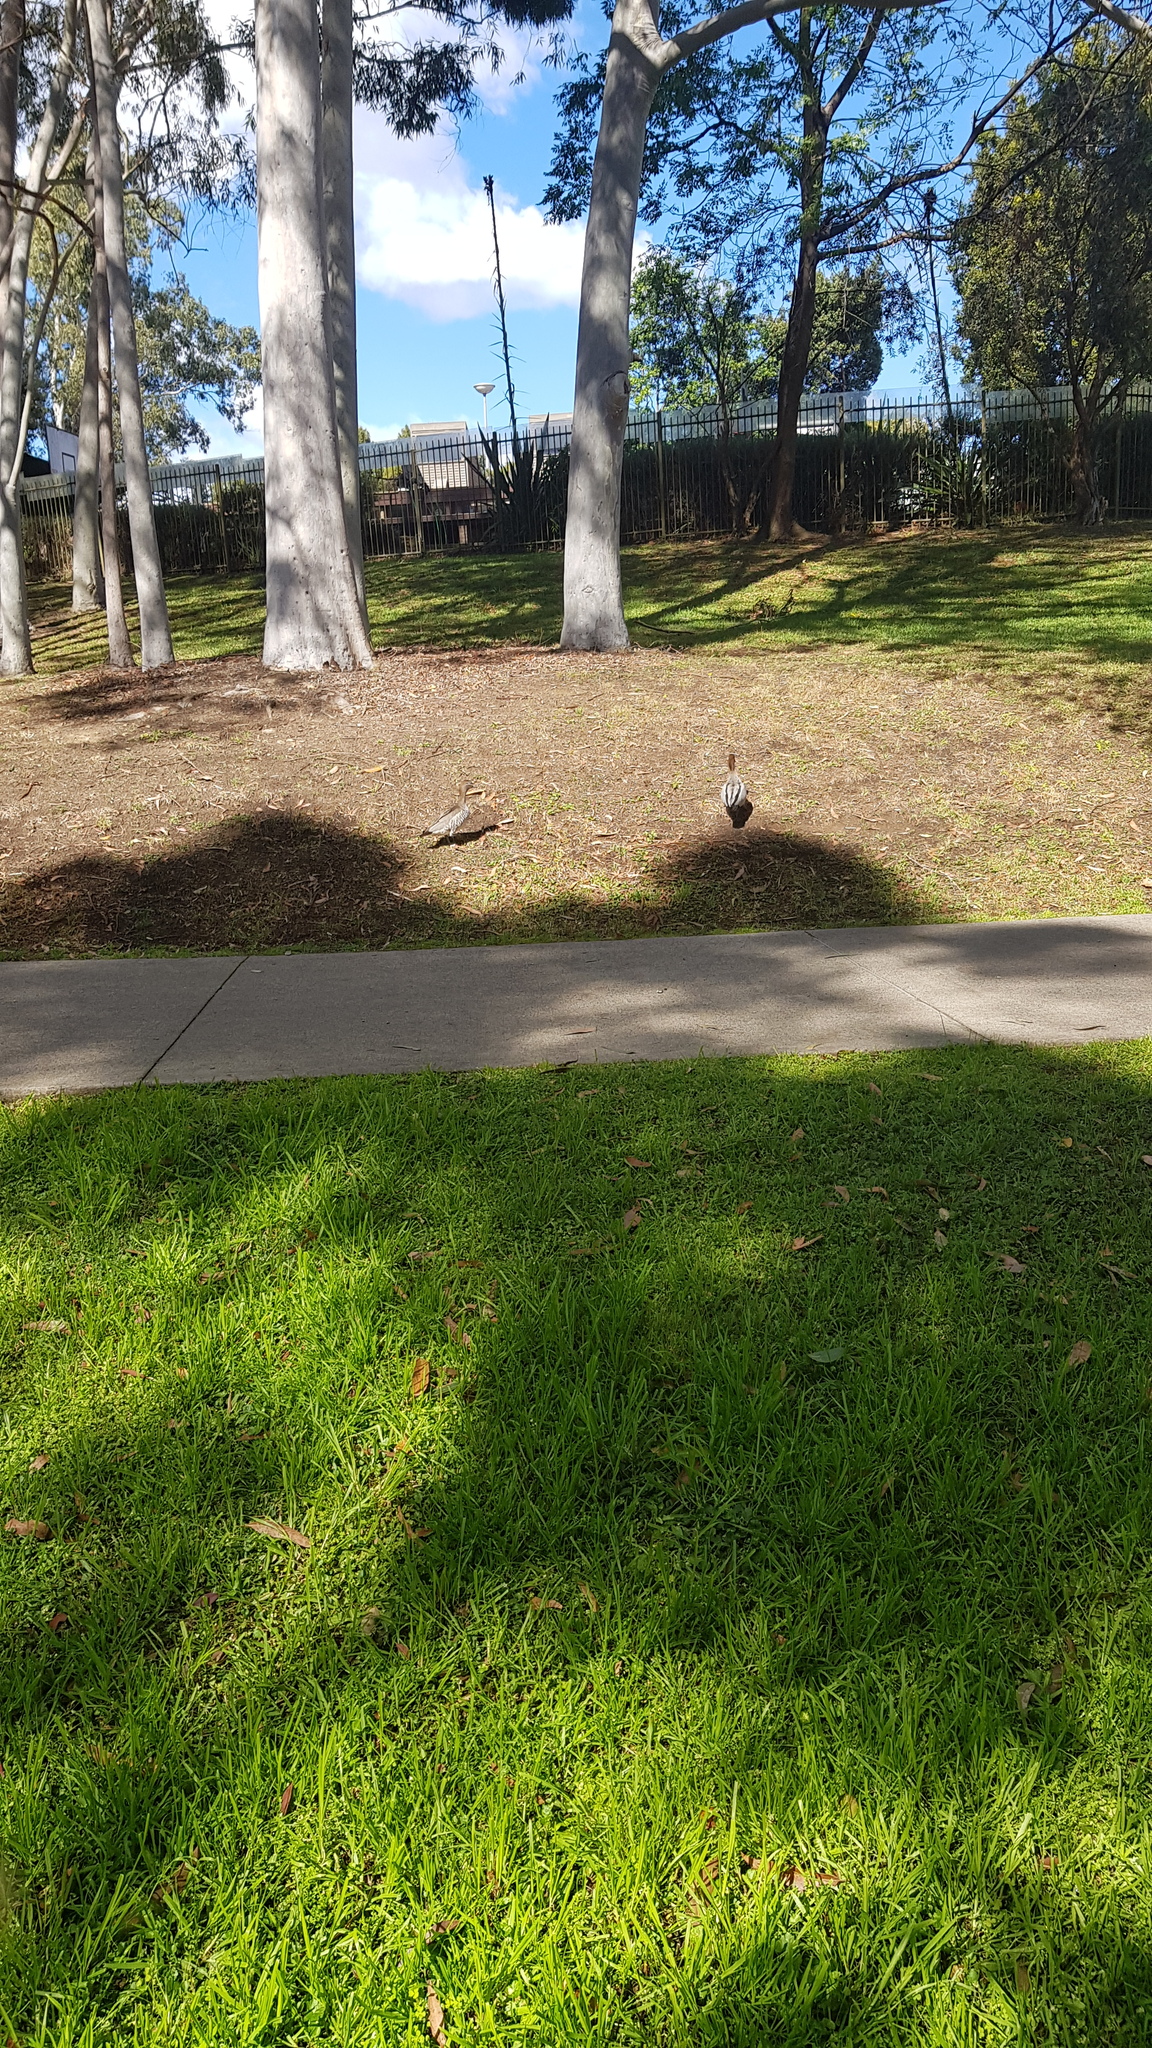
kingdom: Animalia
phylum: Chordata
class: Aves
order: Anseriformes
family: Anatidae
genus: Chenonetta
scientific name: Chenonetta jubata
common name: Maned duck
